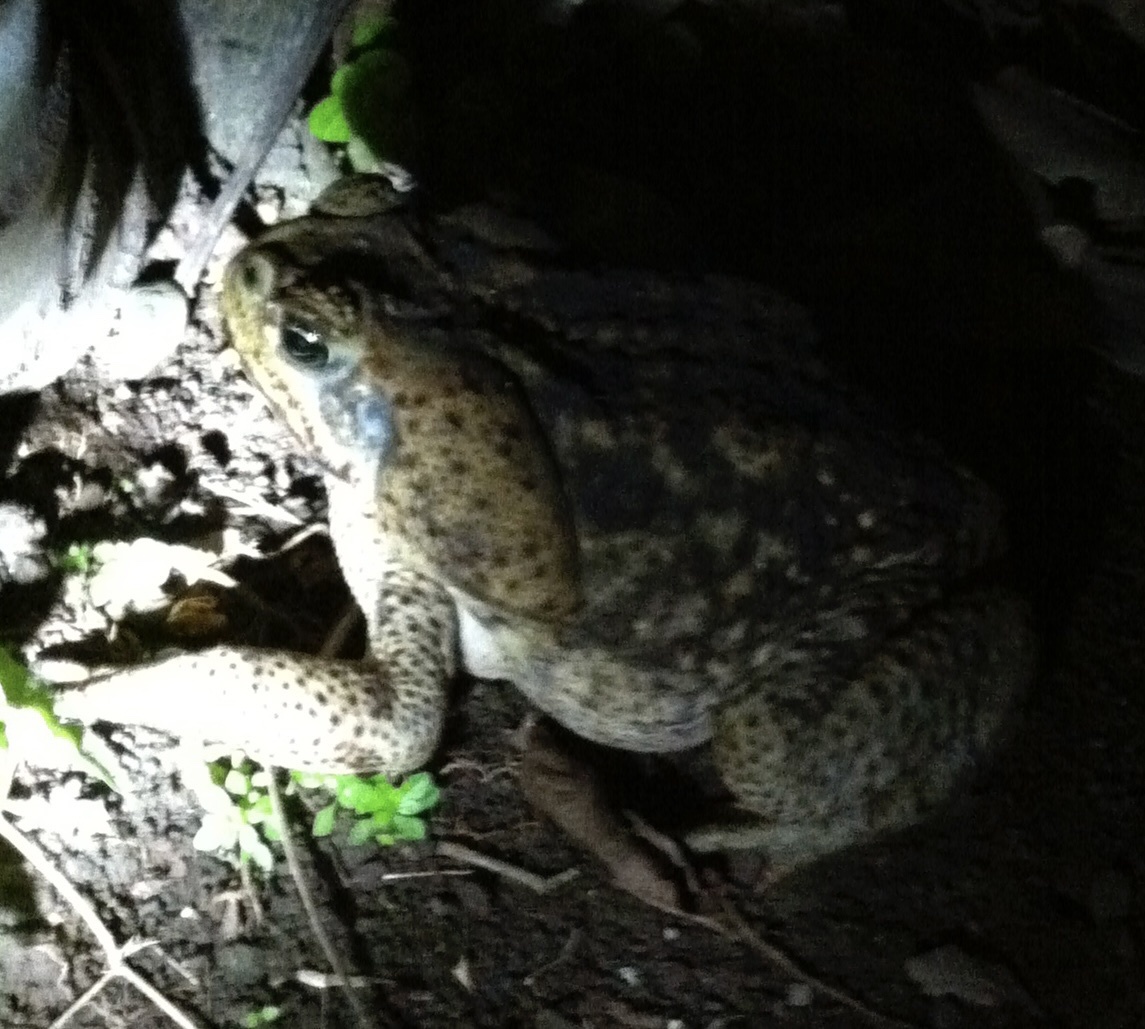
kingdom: Animalia
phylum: Chordata
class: Amphibia
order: Anura
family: Bufonidae
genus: Rhinella
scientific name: Rhinella horribilis
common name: Mesoamerican cane toad
